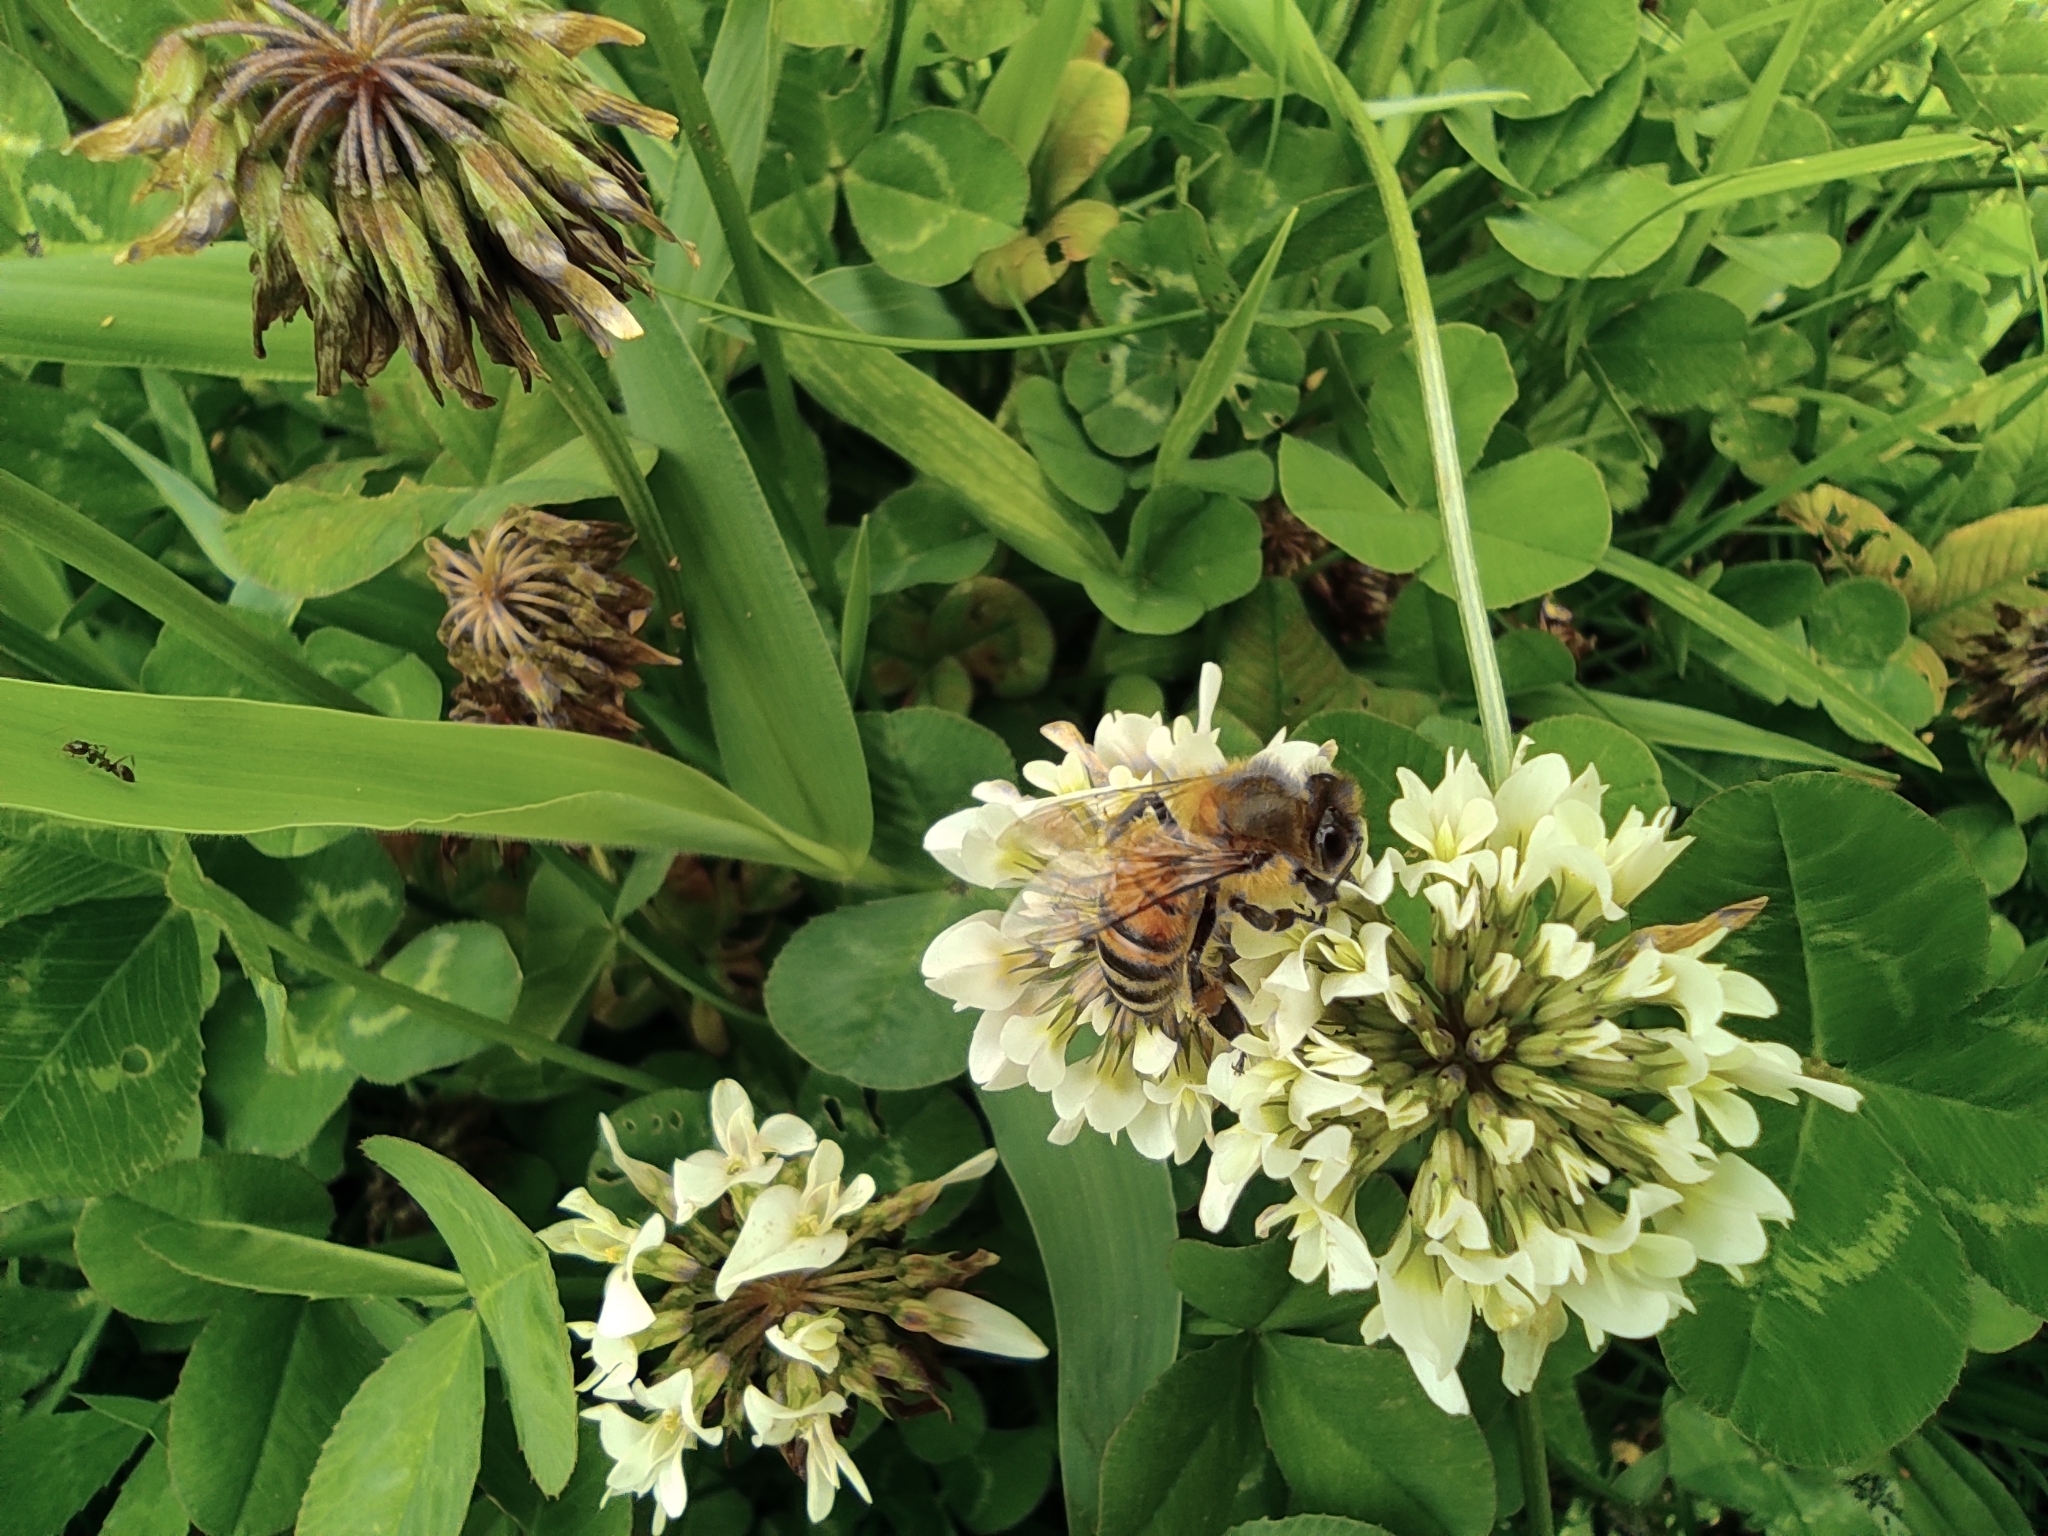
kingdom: Animalia
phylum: Arthropoda
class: Insecta
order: Hymenoptera
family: Apidae
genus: Apis
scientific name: Apis mellifera
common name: Honey bee
